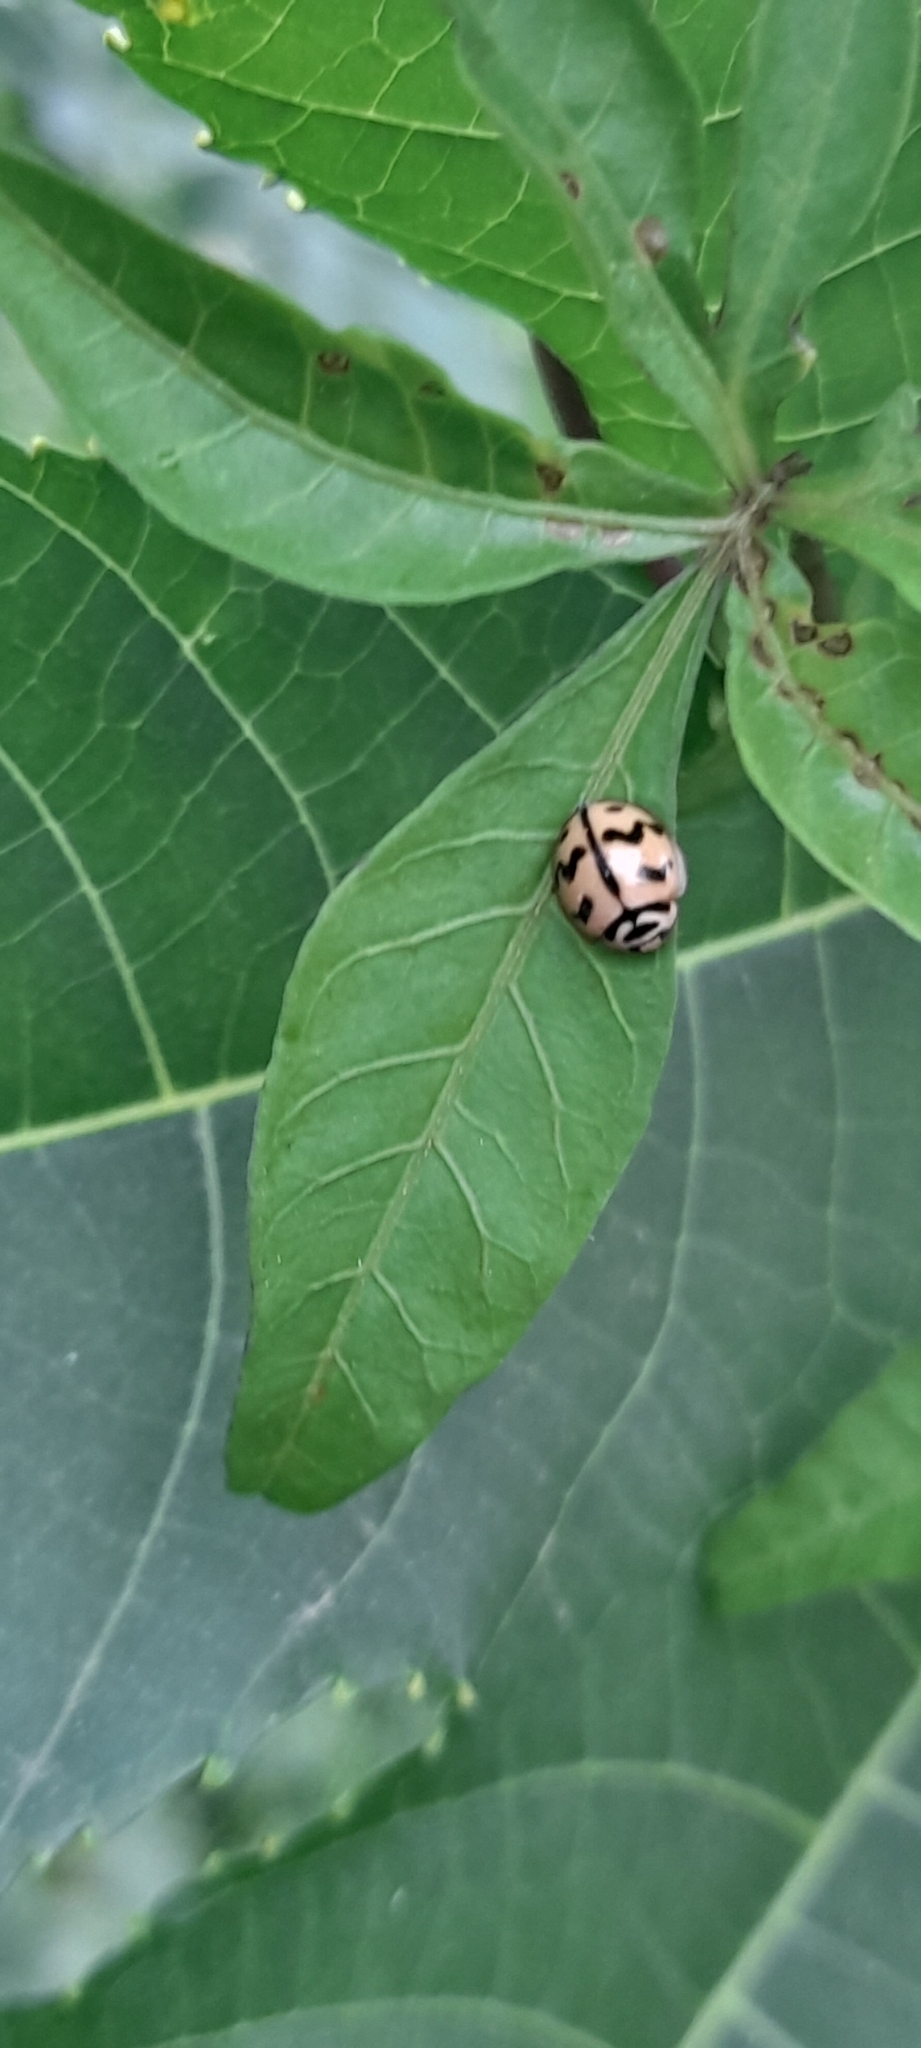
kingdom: Animalia
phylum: Arthropoda
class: Insecta
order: Coleoptera
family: Coccinellidae
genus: Cheilomenes
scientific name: Cheilomenes sexmaculata
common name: Ladybird beetle
